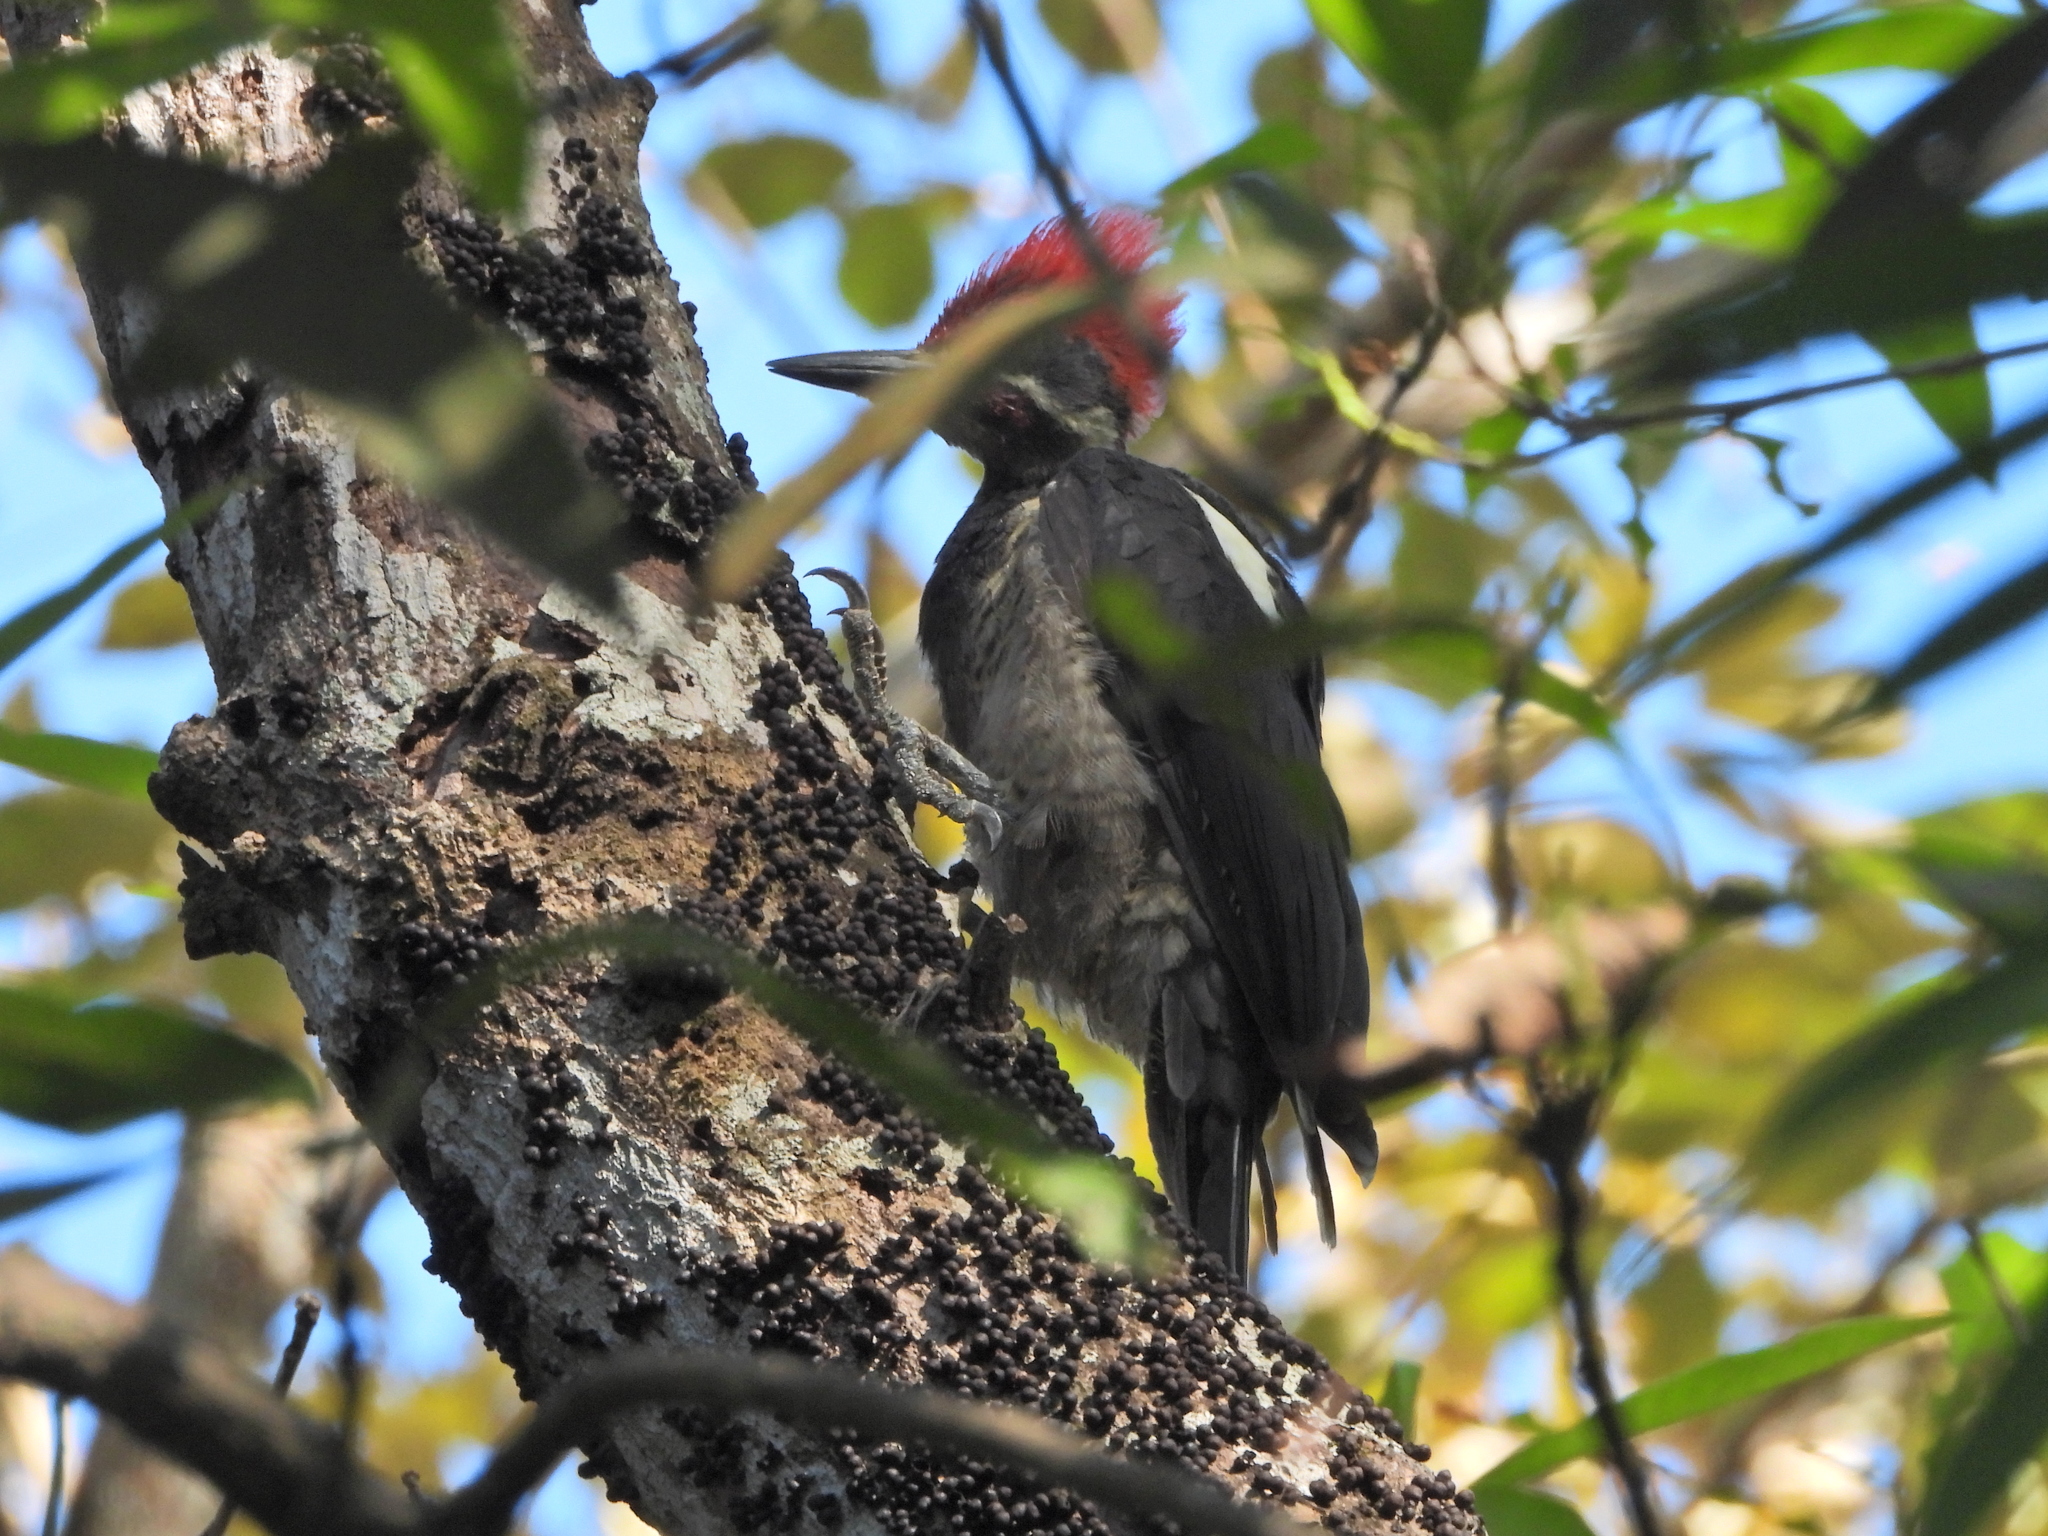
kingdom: Animalia
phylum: Chordata
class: Aves
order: Piciformes
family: Picidae
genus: Dryocopus
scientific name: Dryocopus lineatus
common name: Lineated woodpecker
